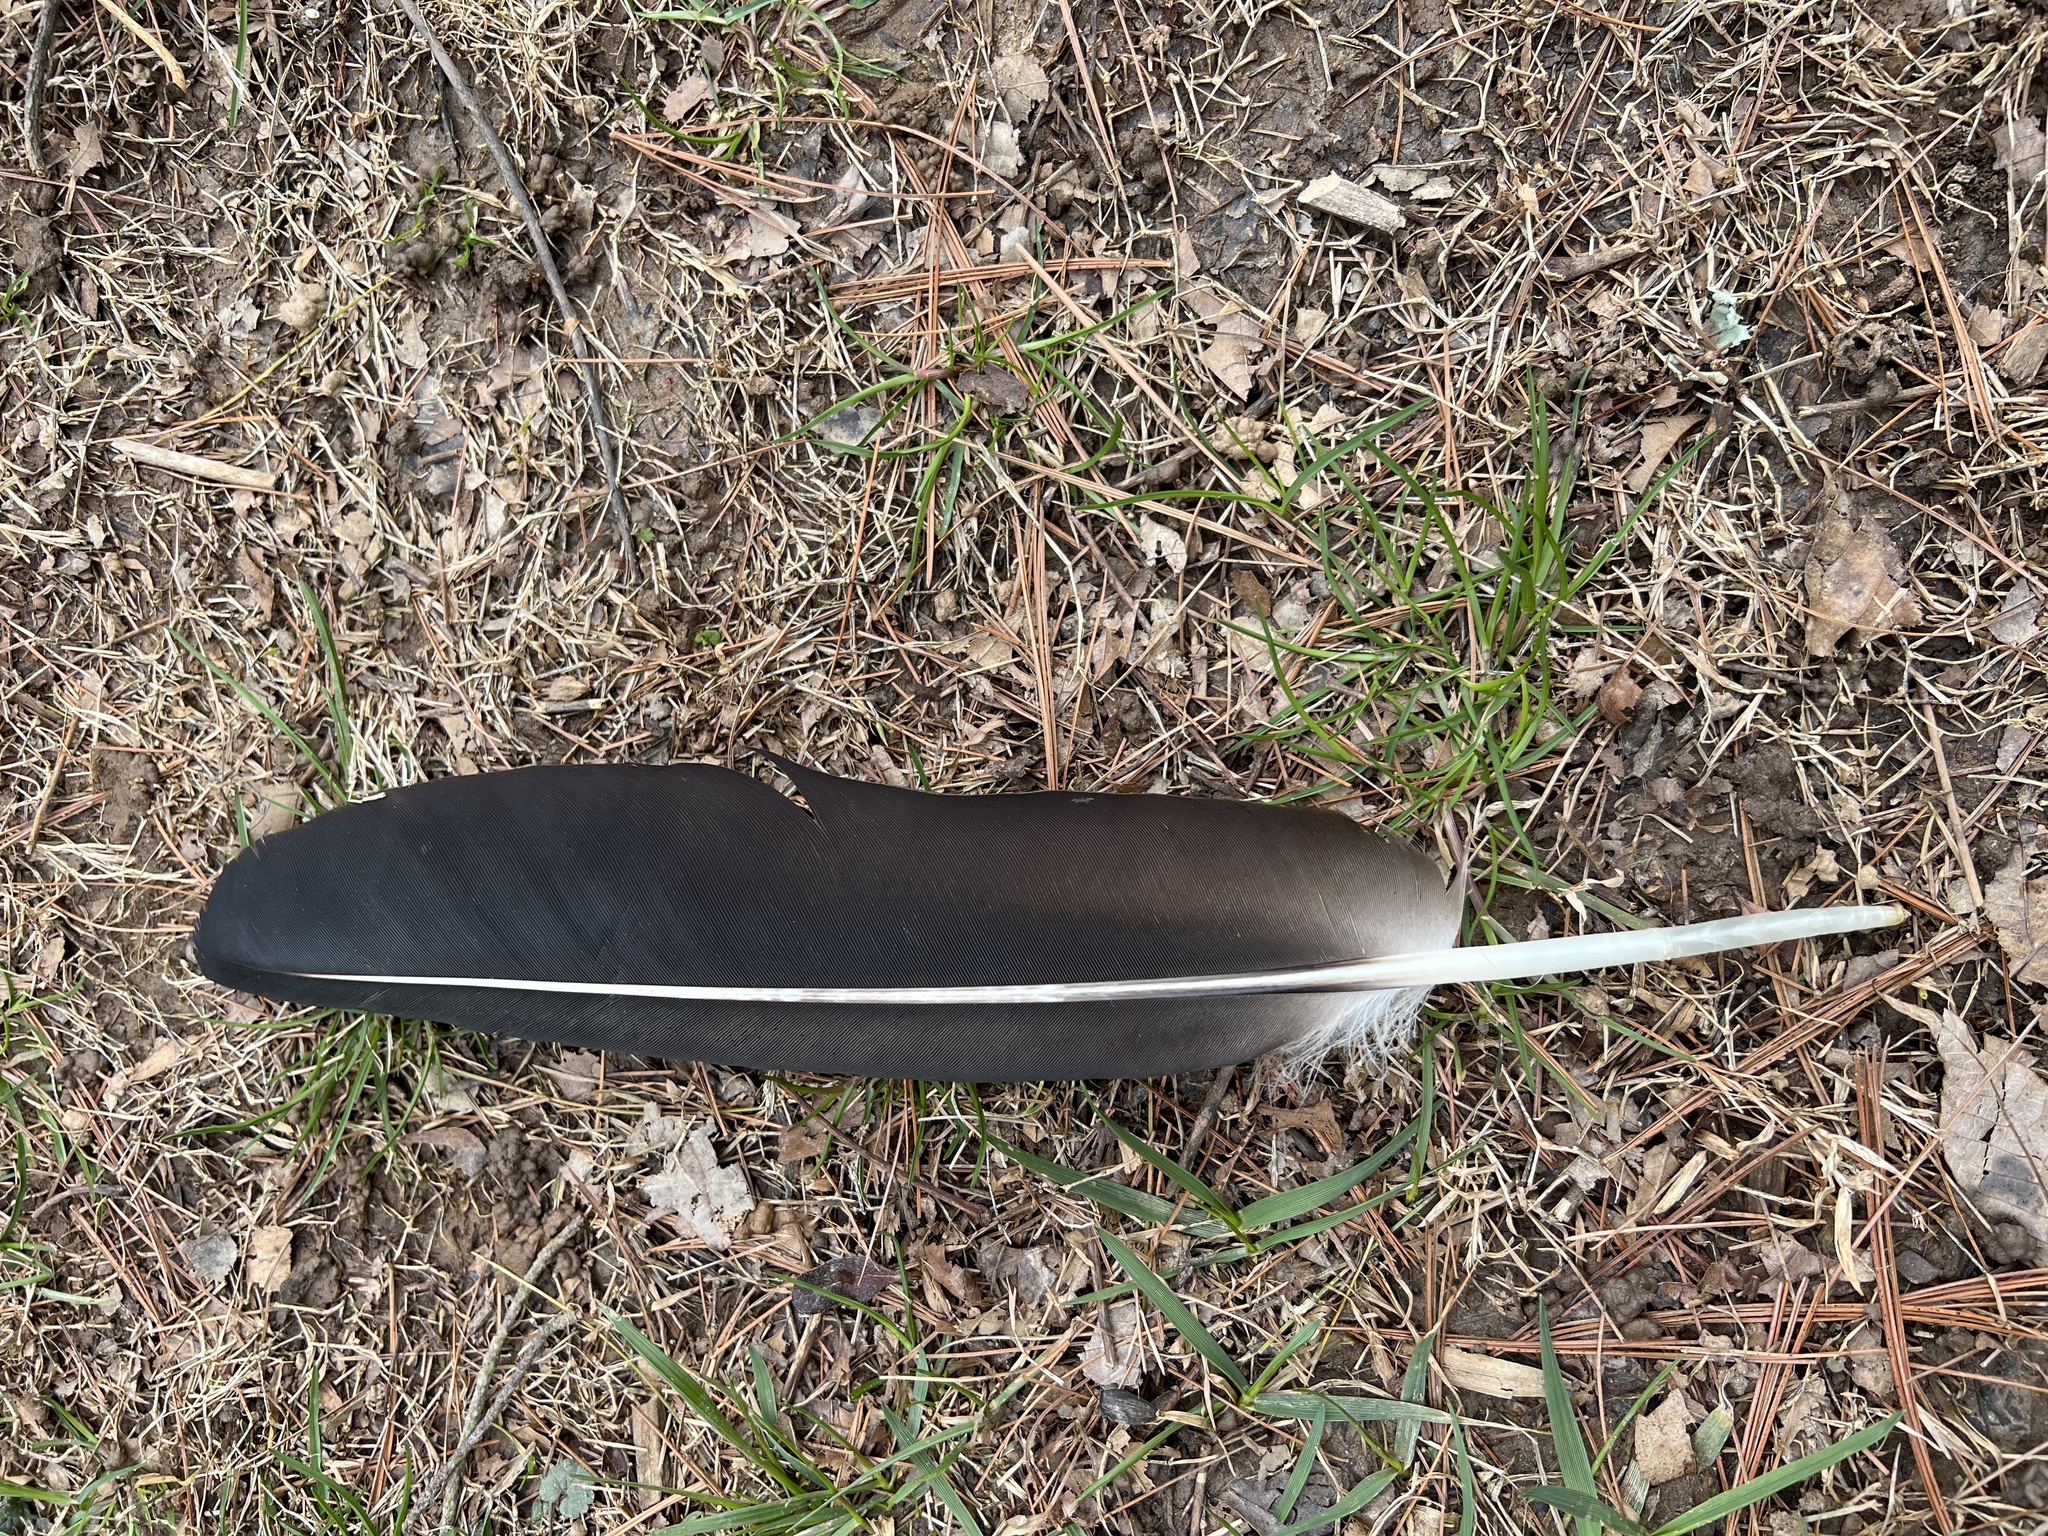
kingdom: Animalia
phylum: Chordata
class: Aves
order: Accipitriformes
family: Cathartidae
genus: Coragyps
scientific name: Coragyps atratus
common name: Black vulture
